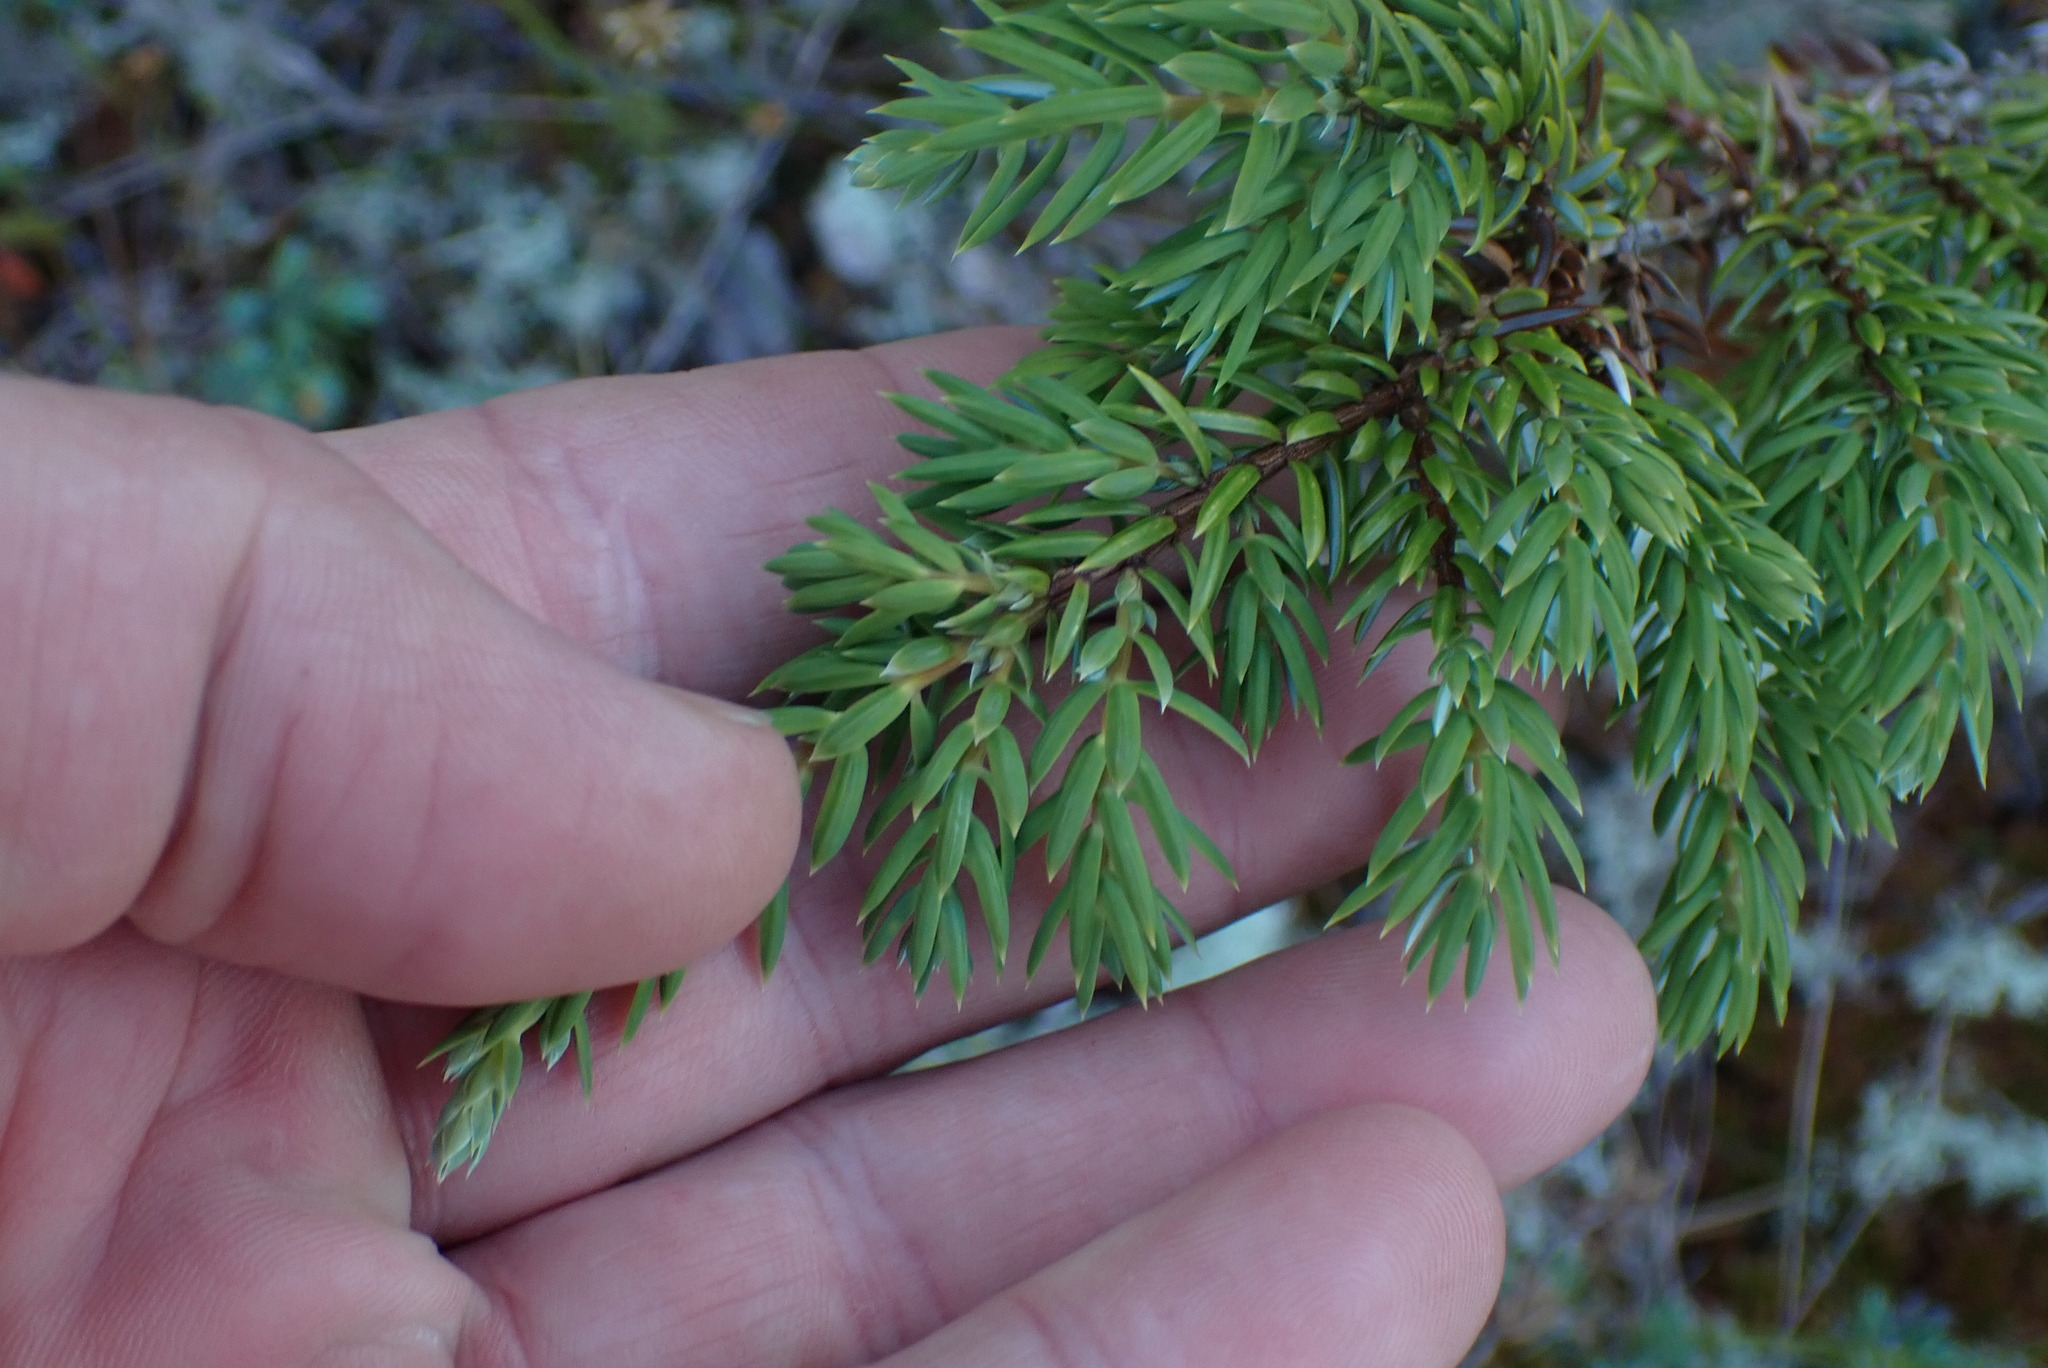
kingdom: Plantae
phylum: Tracheophyta
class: Pinopsida
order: Pinales
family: Cupressaceae
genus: Juniperus
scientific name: Juniperus communis
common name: Common juniper
